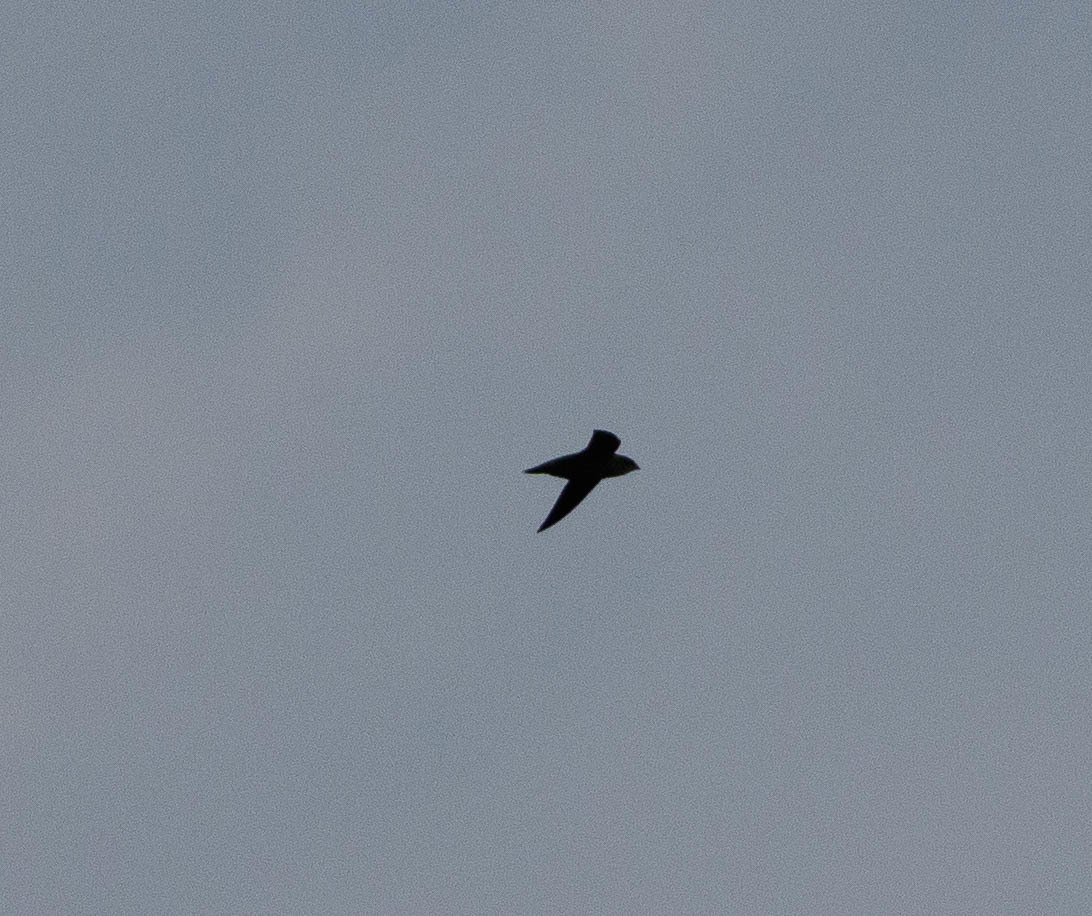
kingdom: Animalia
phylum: Chordata
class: Aves
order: Apodiformes
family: Apodidae
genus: Chaetura
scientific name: Chaetura pelagica
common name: Chimney swift
